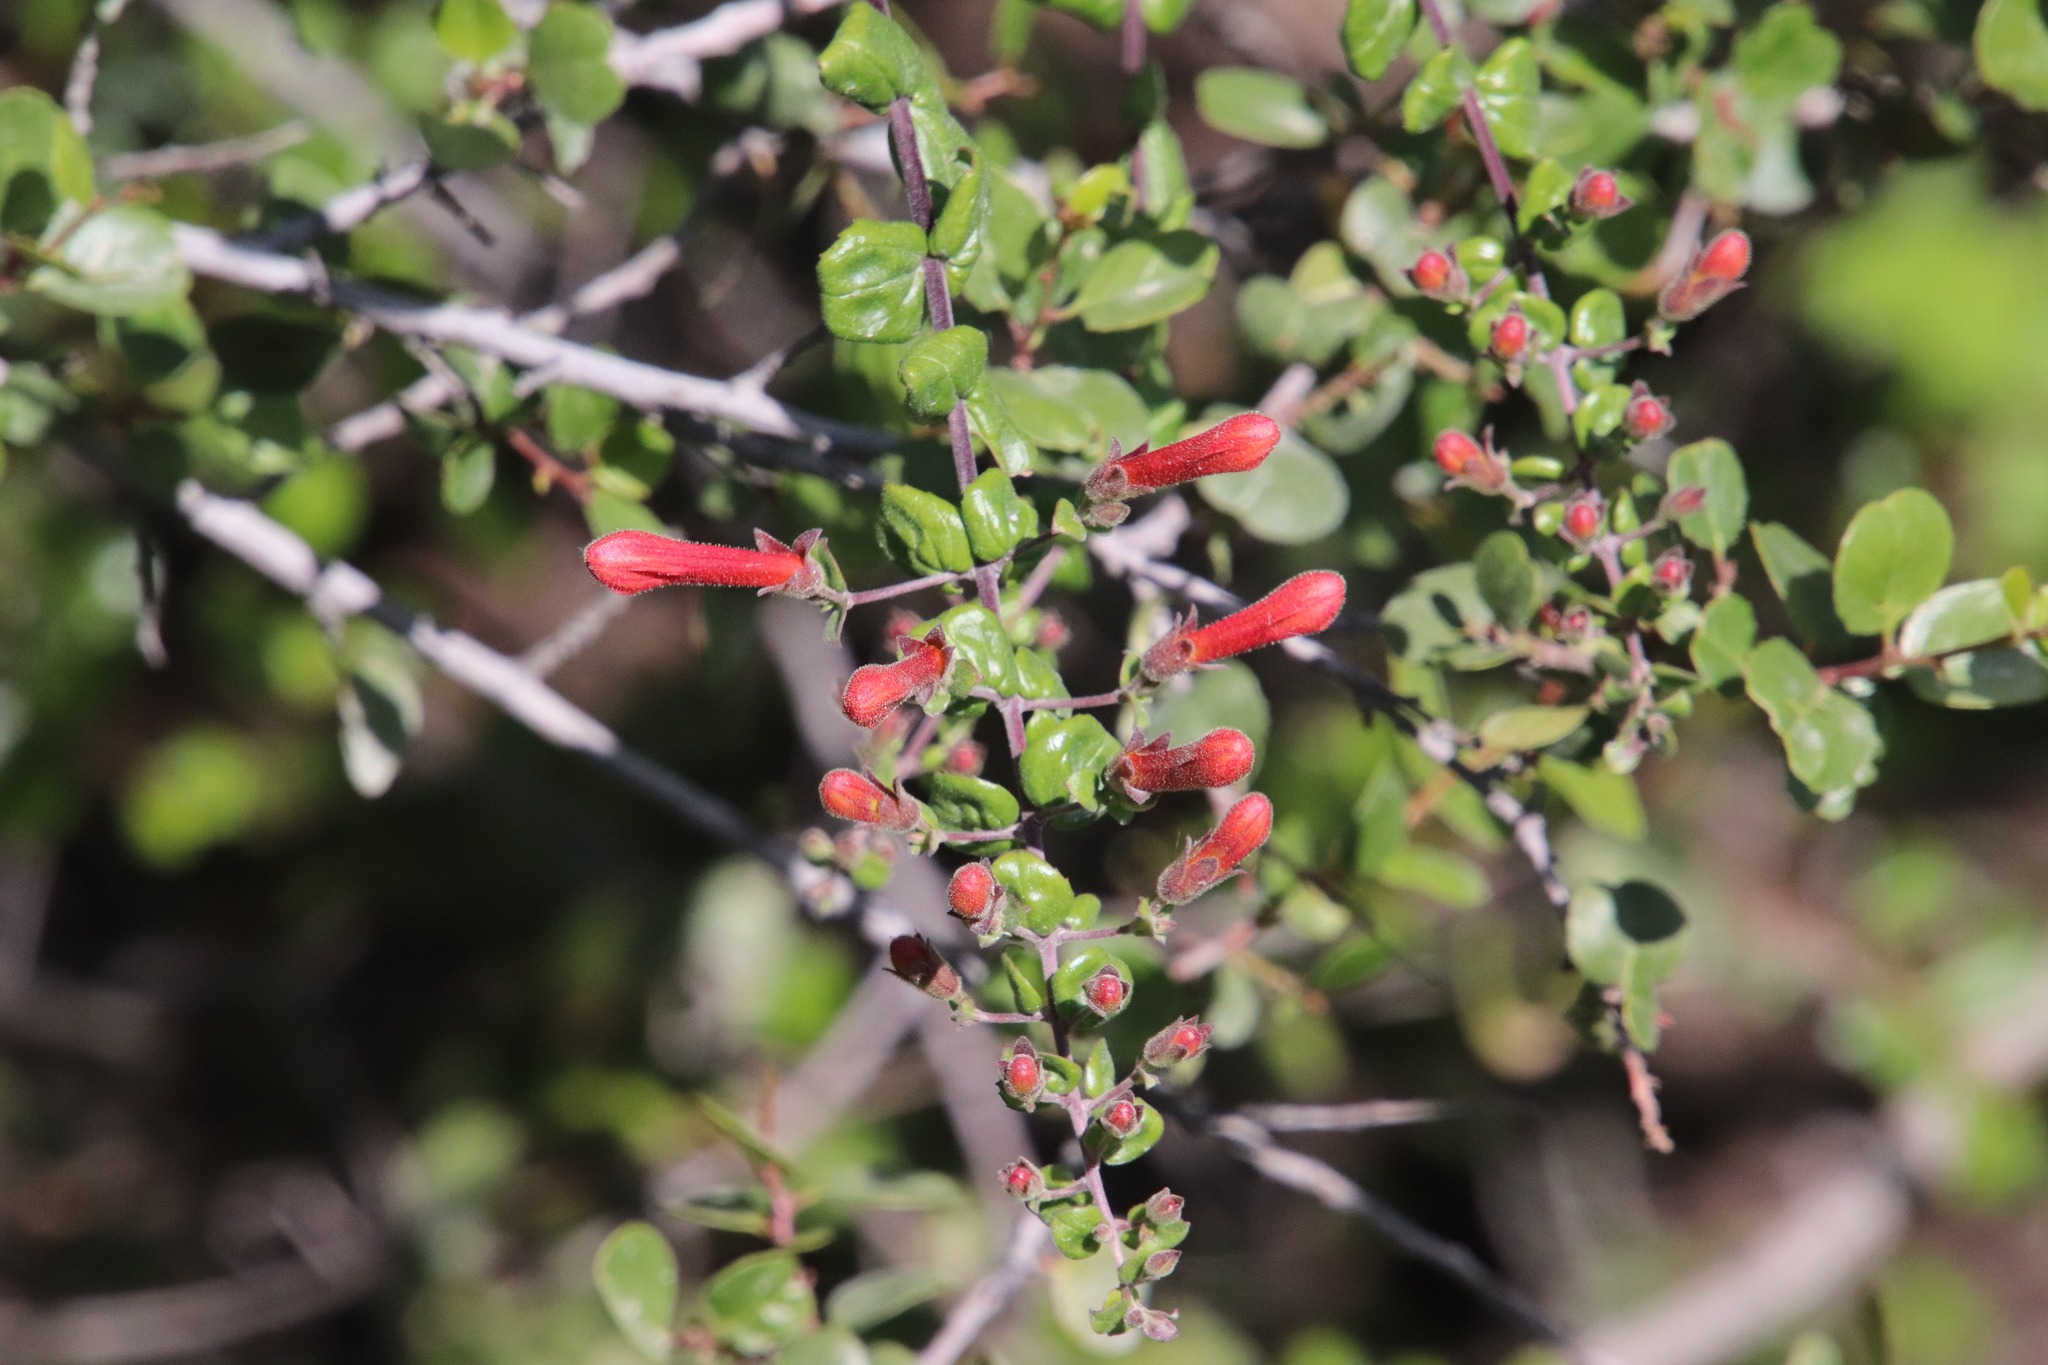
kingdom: Plantae
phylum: Tracheophyta
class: Magnoliopsida
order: Lamiales
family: Plantaginaceae
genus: Keckiella
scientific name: Keckiella cordifolia
